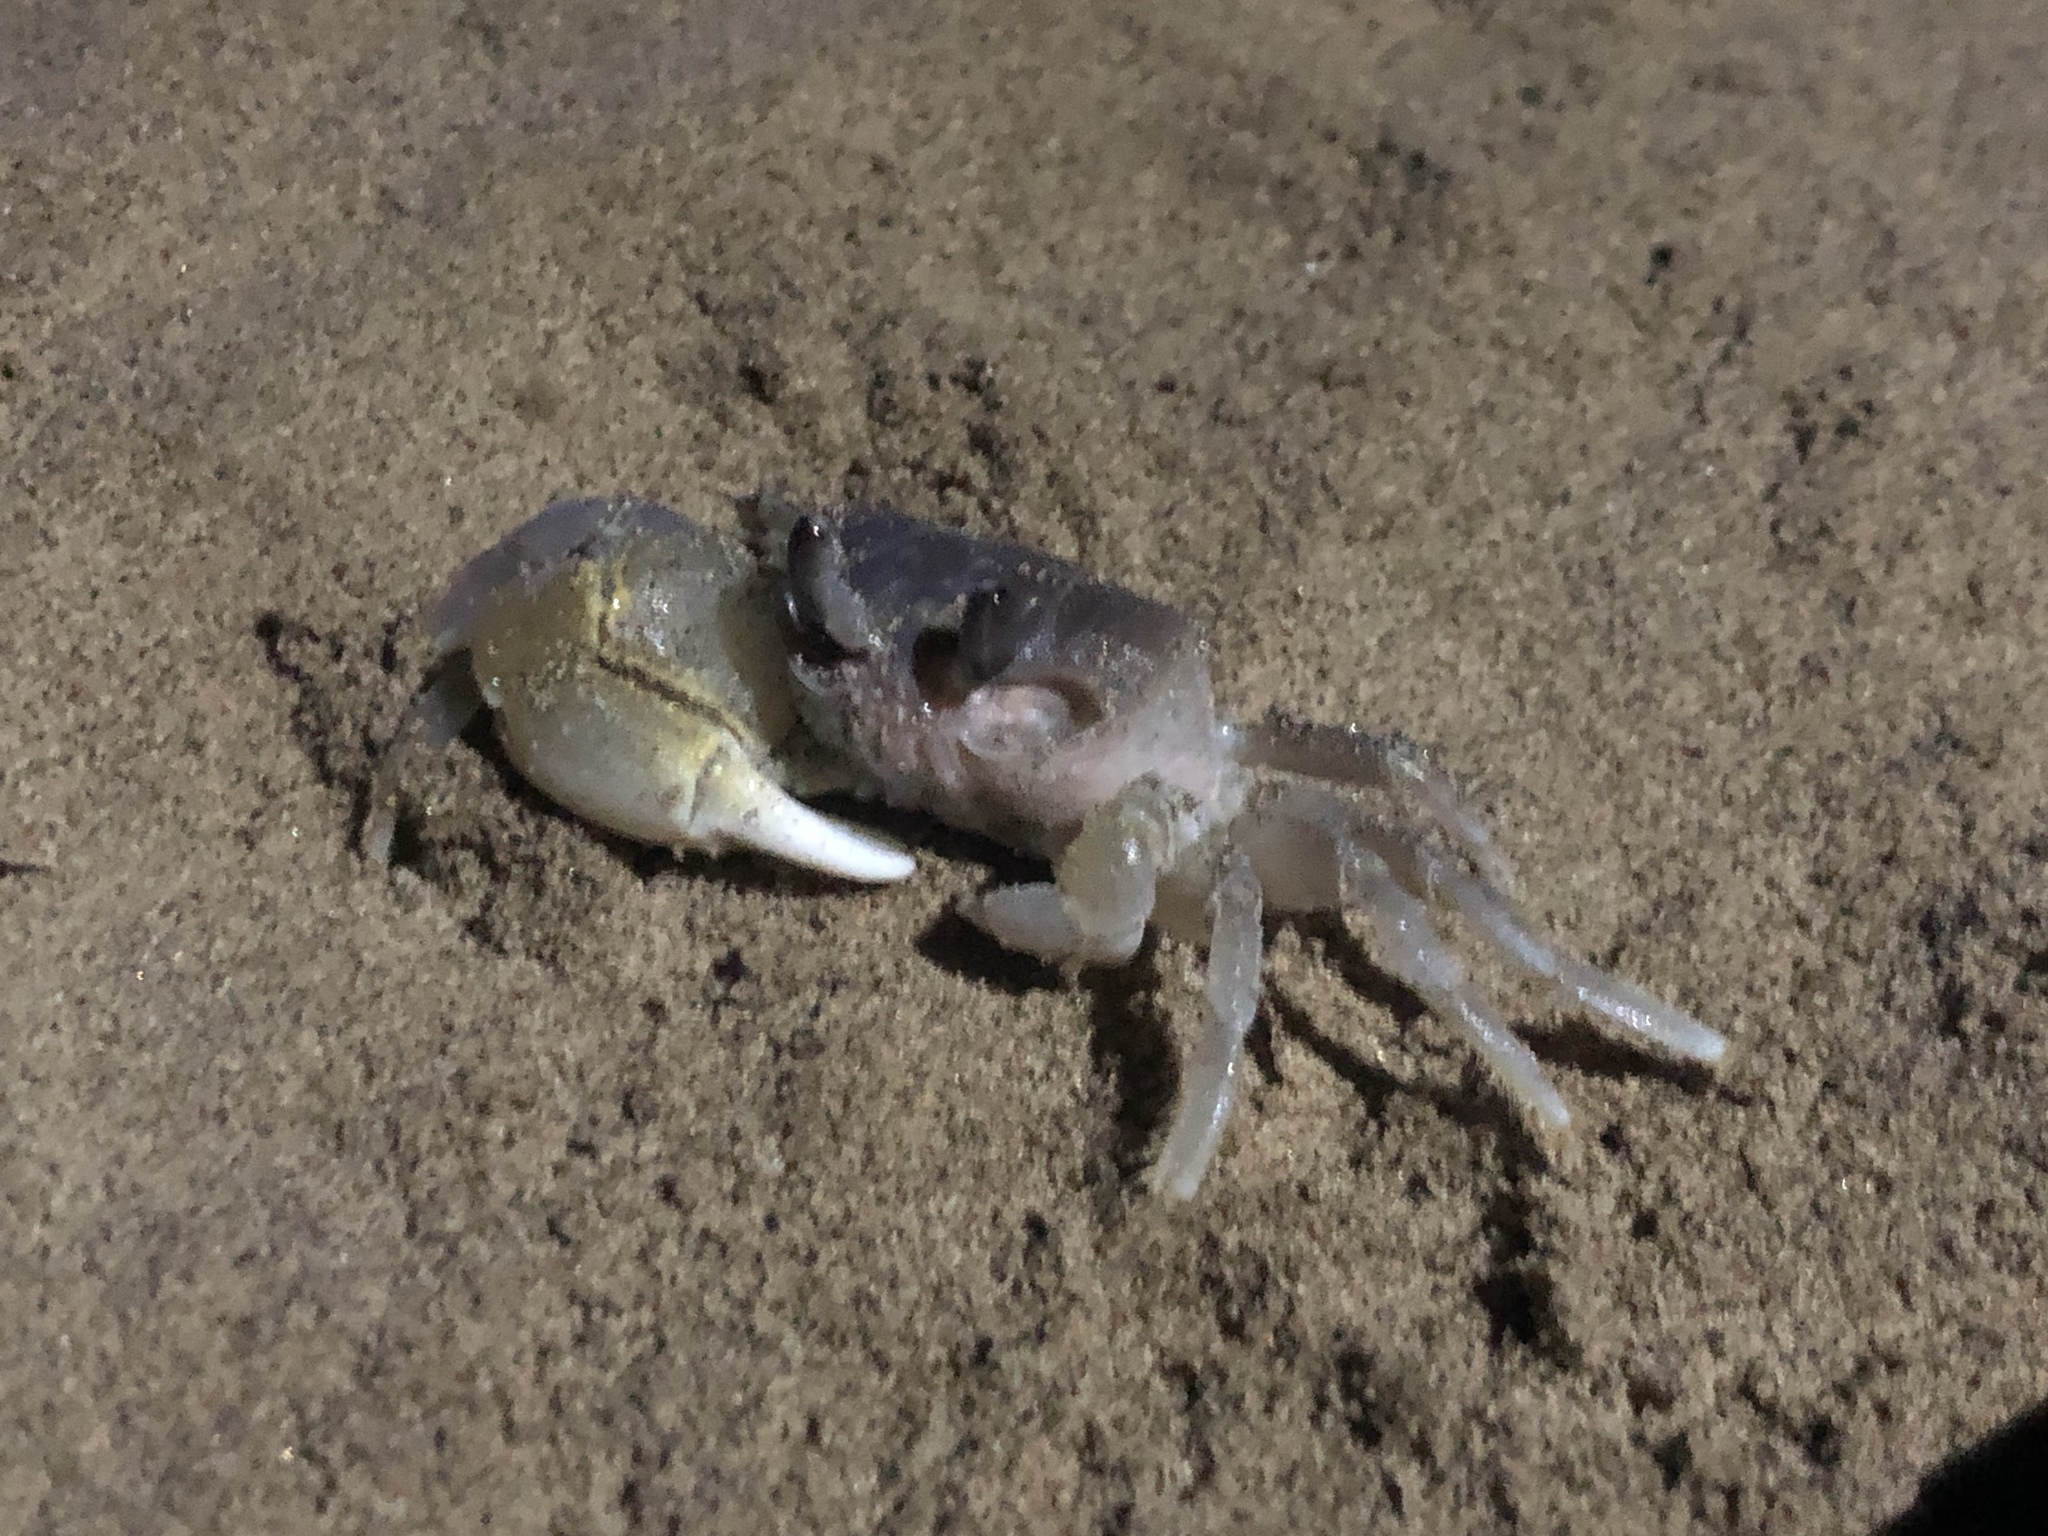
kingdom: Animalia
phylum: Arthropoda
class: Malacostraca
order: Decapoda
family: Ocypodidae
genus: Ocypode
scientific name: Ocypode pallidula
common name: Pallid ghost crab
